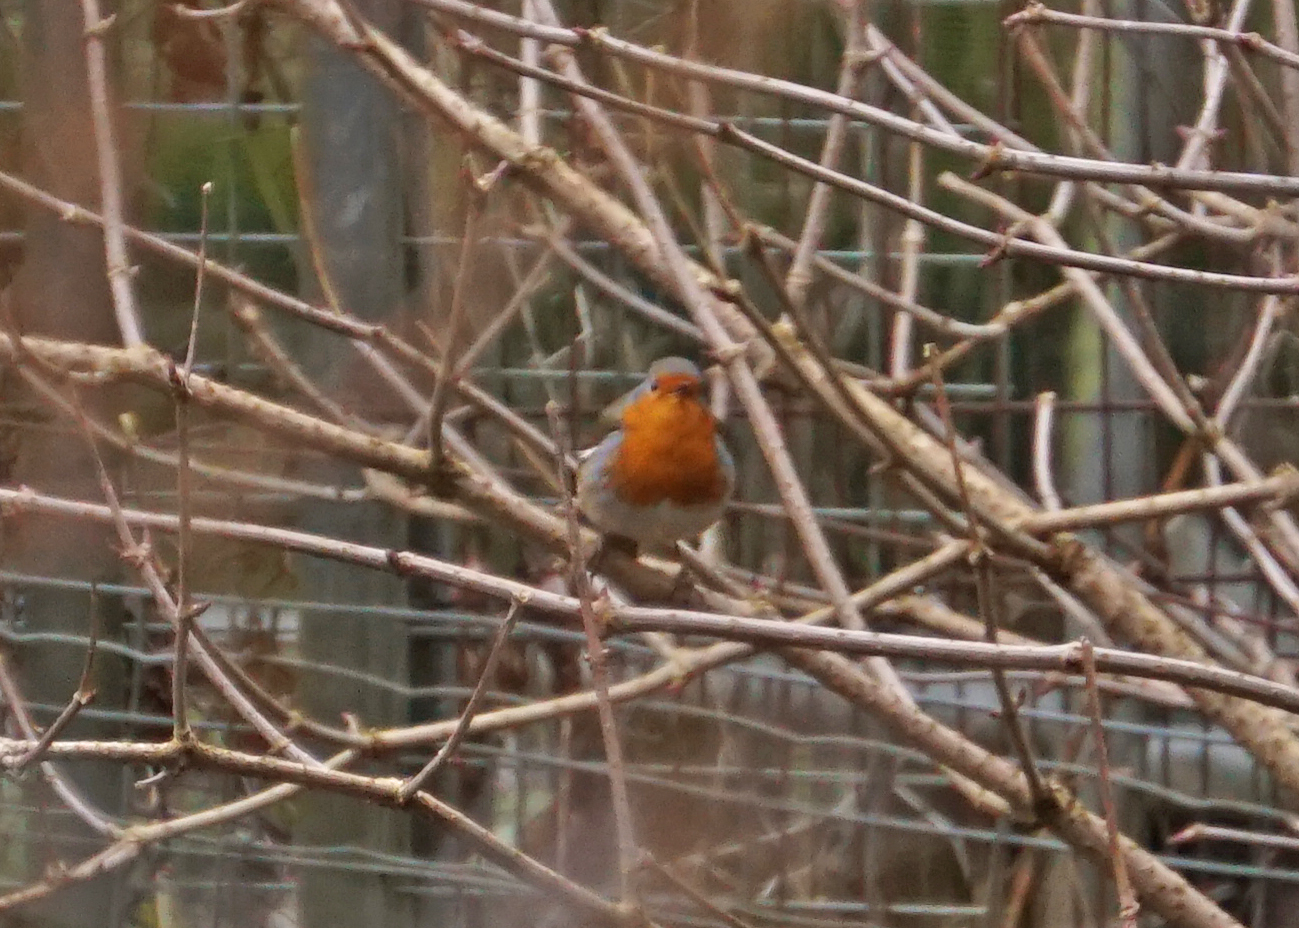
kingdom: Animalia
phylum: Chordata
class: Aves
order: Passeriformes
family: Muscicapidae
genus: Erithacus
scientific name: Erithacus rubecula
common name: European robin
